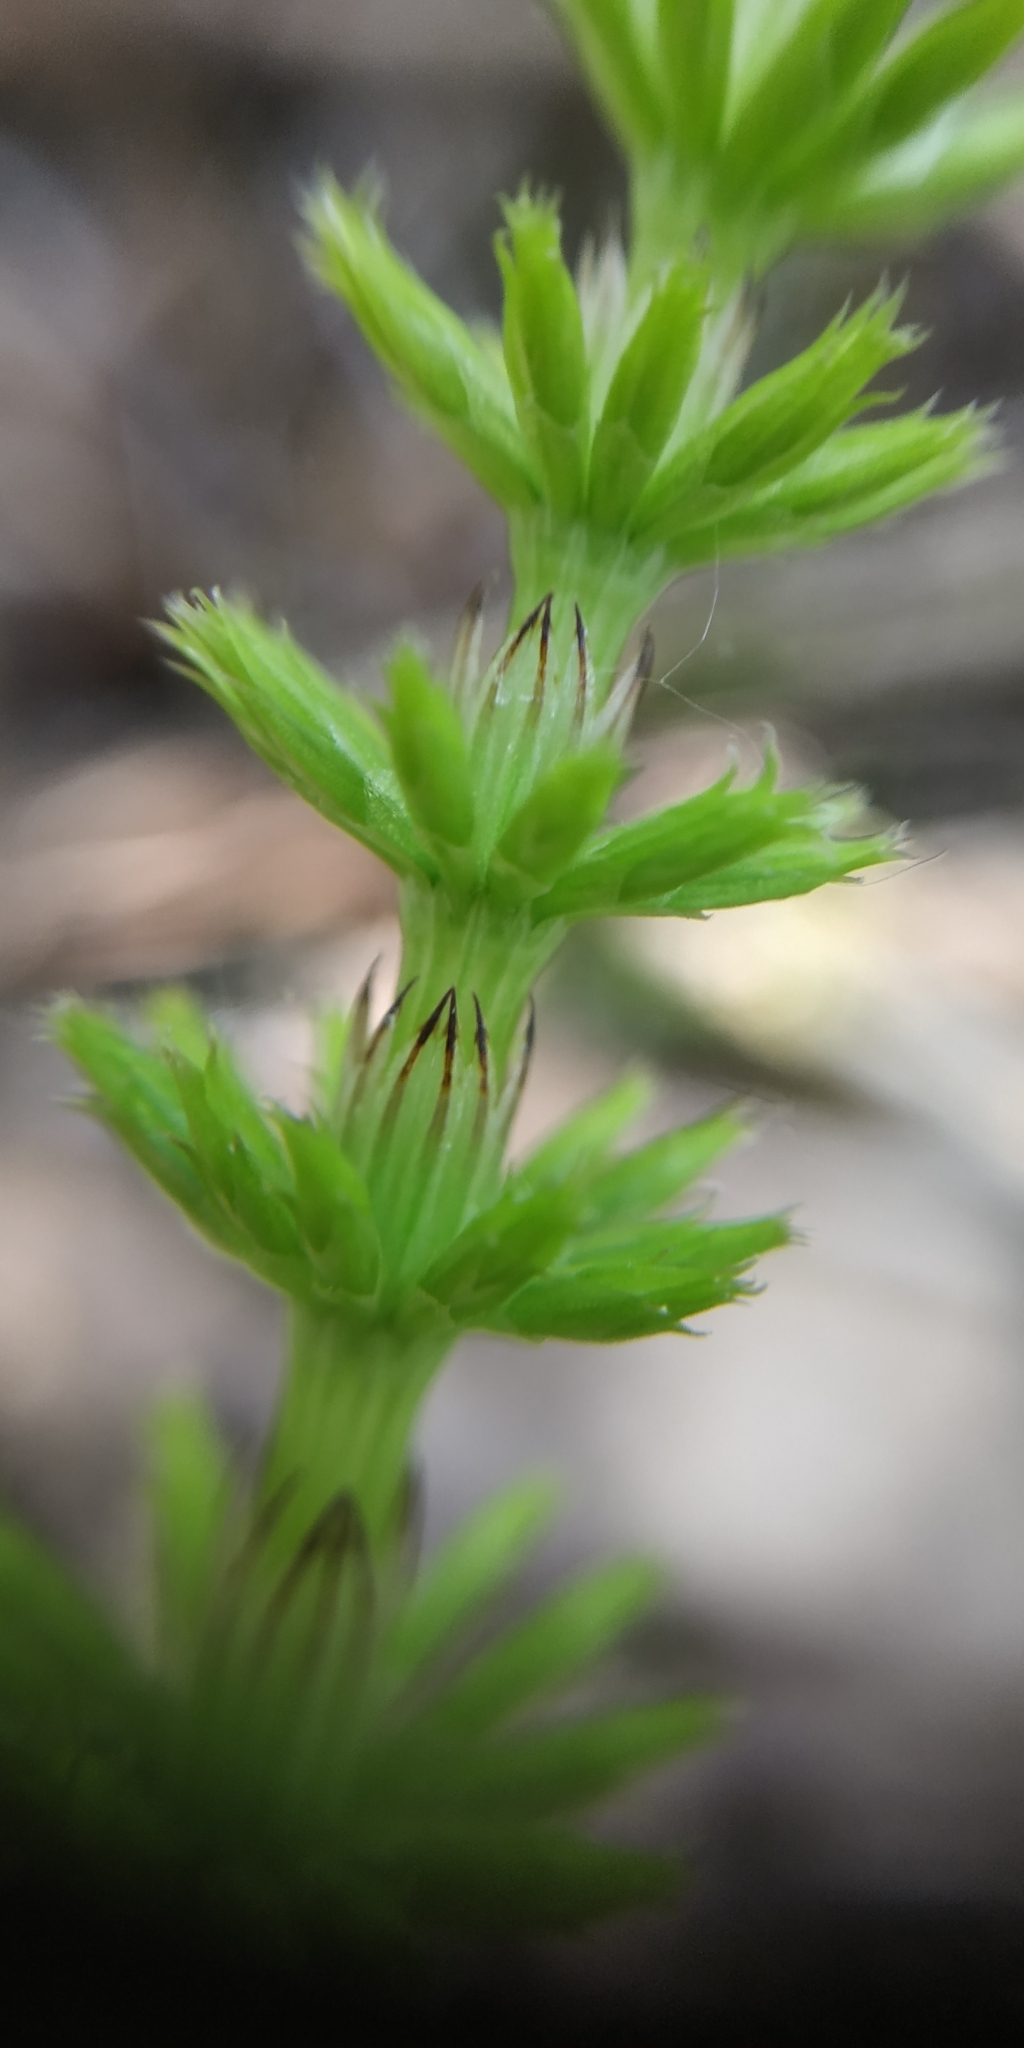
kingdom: Plantae
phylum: Tracheophyta
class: Polypodiopsida
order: Equisetales
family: Equisetaceae
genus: Equisetum
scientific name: Equisetum arvense
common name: Field horsetail
